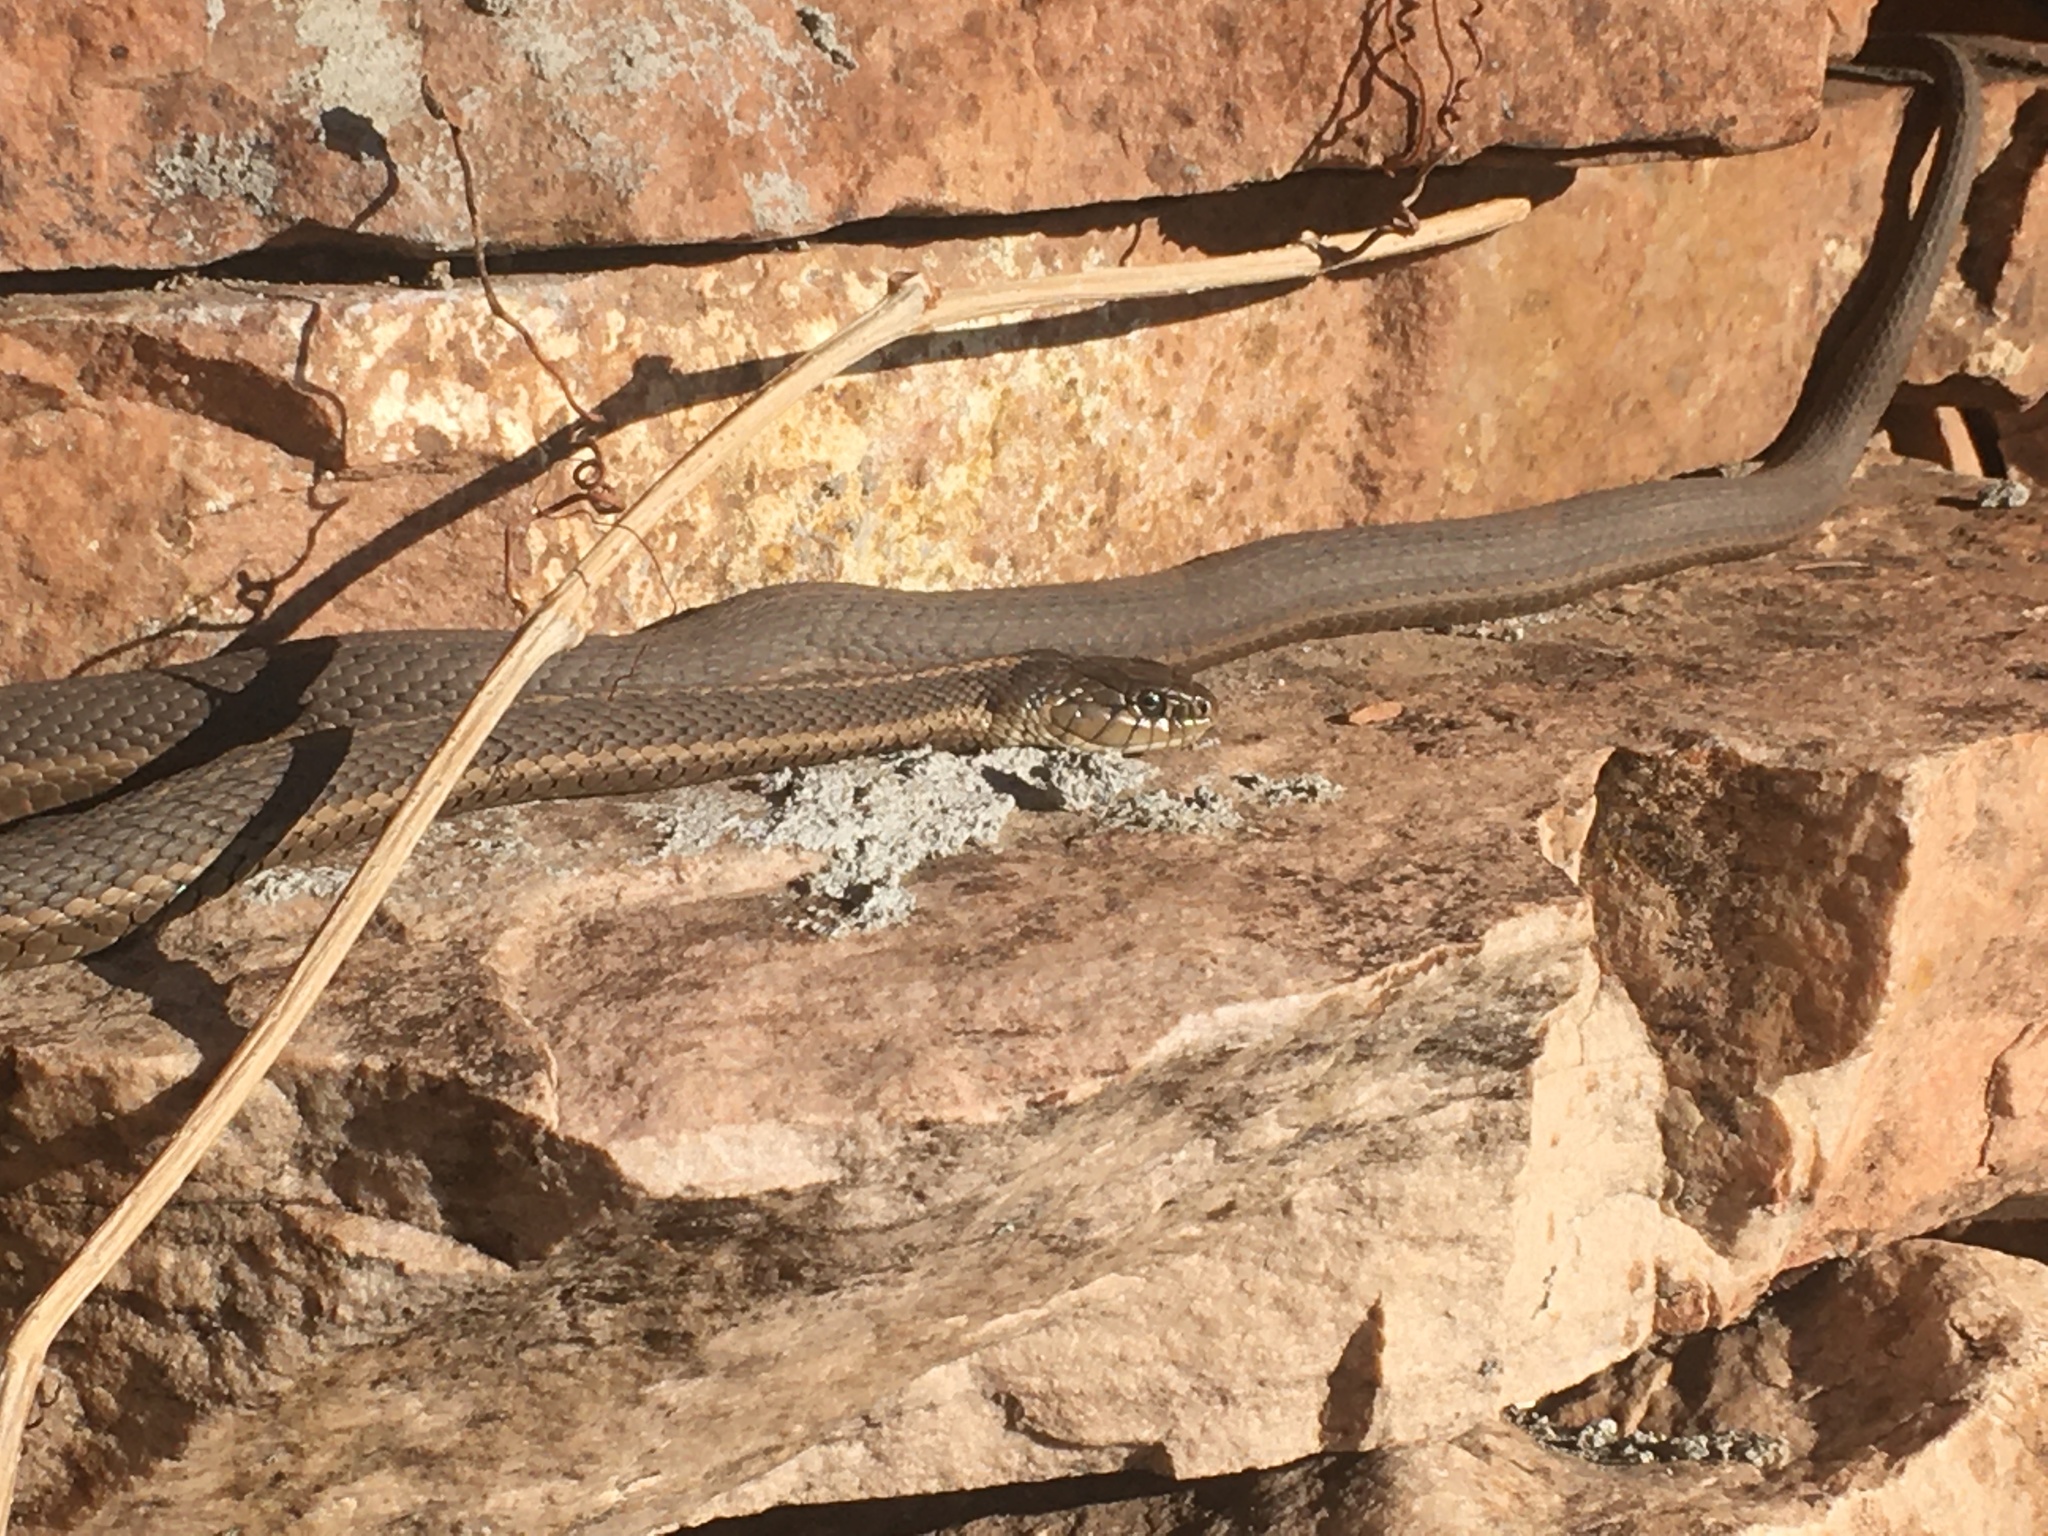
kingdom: Animalia
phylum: Chordata
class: Squamata
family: Colubridae
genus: Thamnophis
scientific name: Thamnophis elegans
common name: Western terrestrial garter snake
